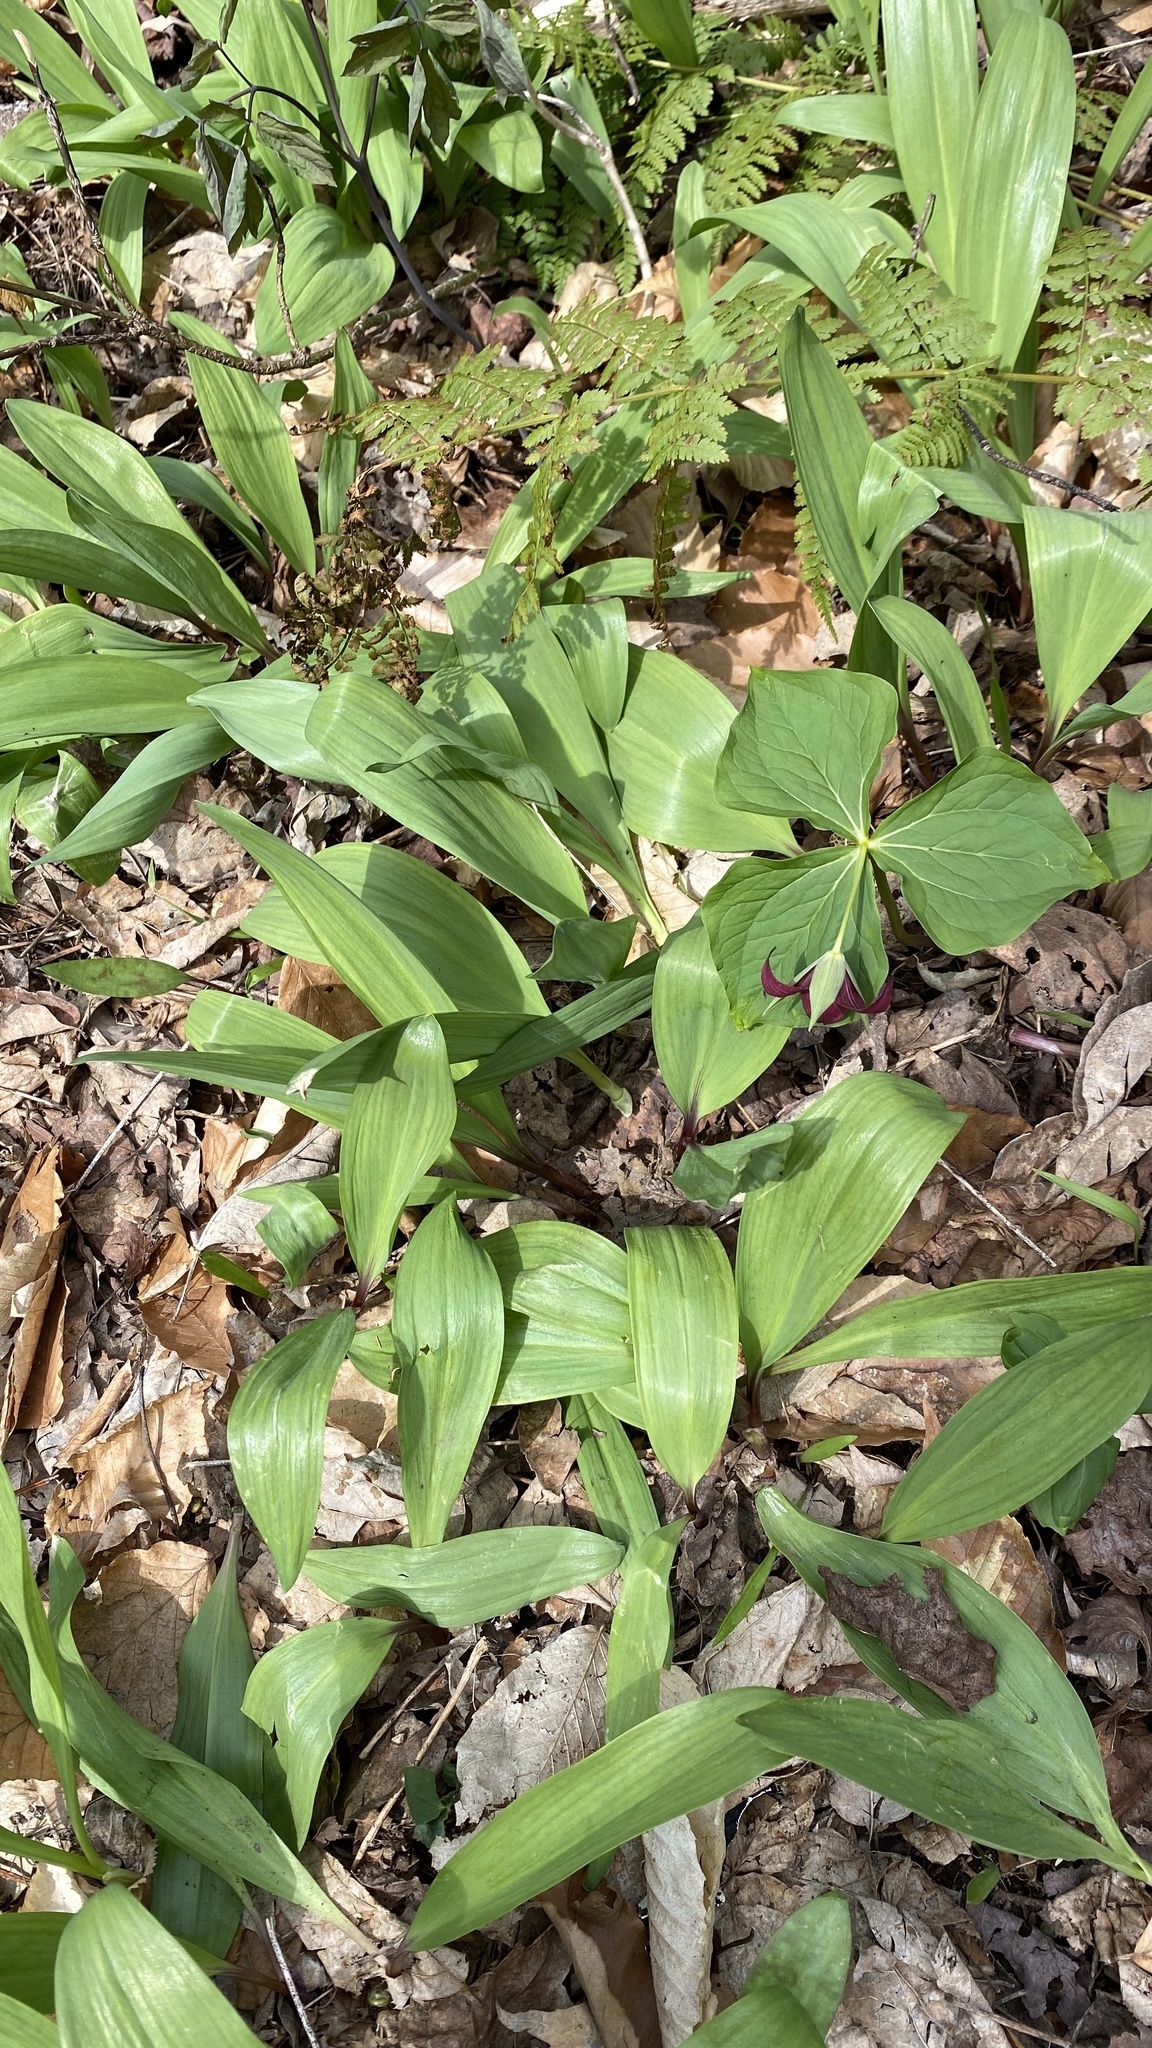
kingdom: Plantae
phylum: Tracheophyta
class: Liliopsida
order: Asparagales
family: Amaryllidaceae
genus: Allium
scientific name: Allium tricoccum
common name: Ramp
